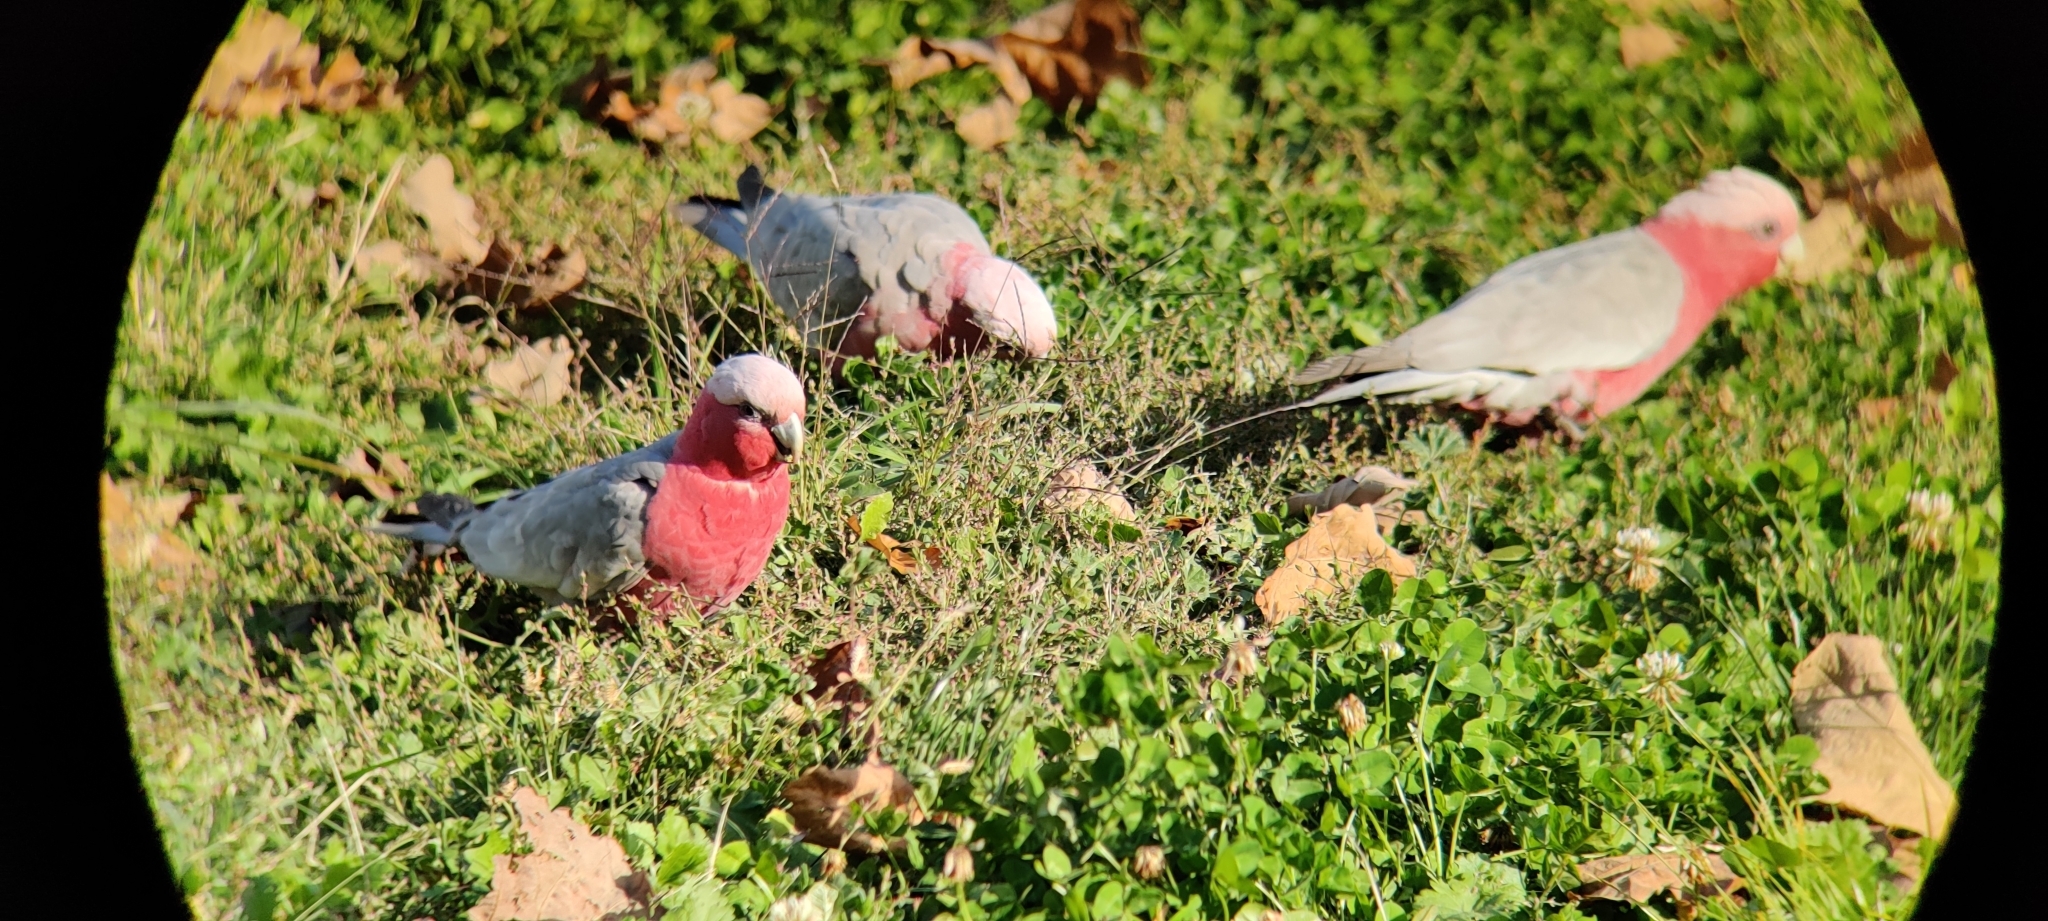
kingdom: Animalia
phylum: Chordata
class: Aves
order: Psittaciformes
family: Psittacidae
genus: Eolophus
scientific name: Eolophus roseicapilla
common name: Galah
